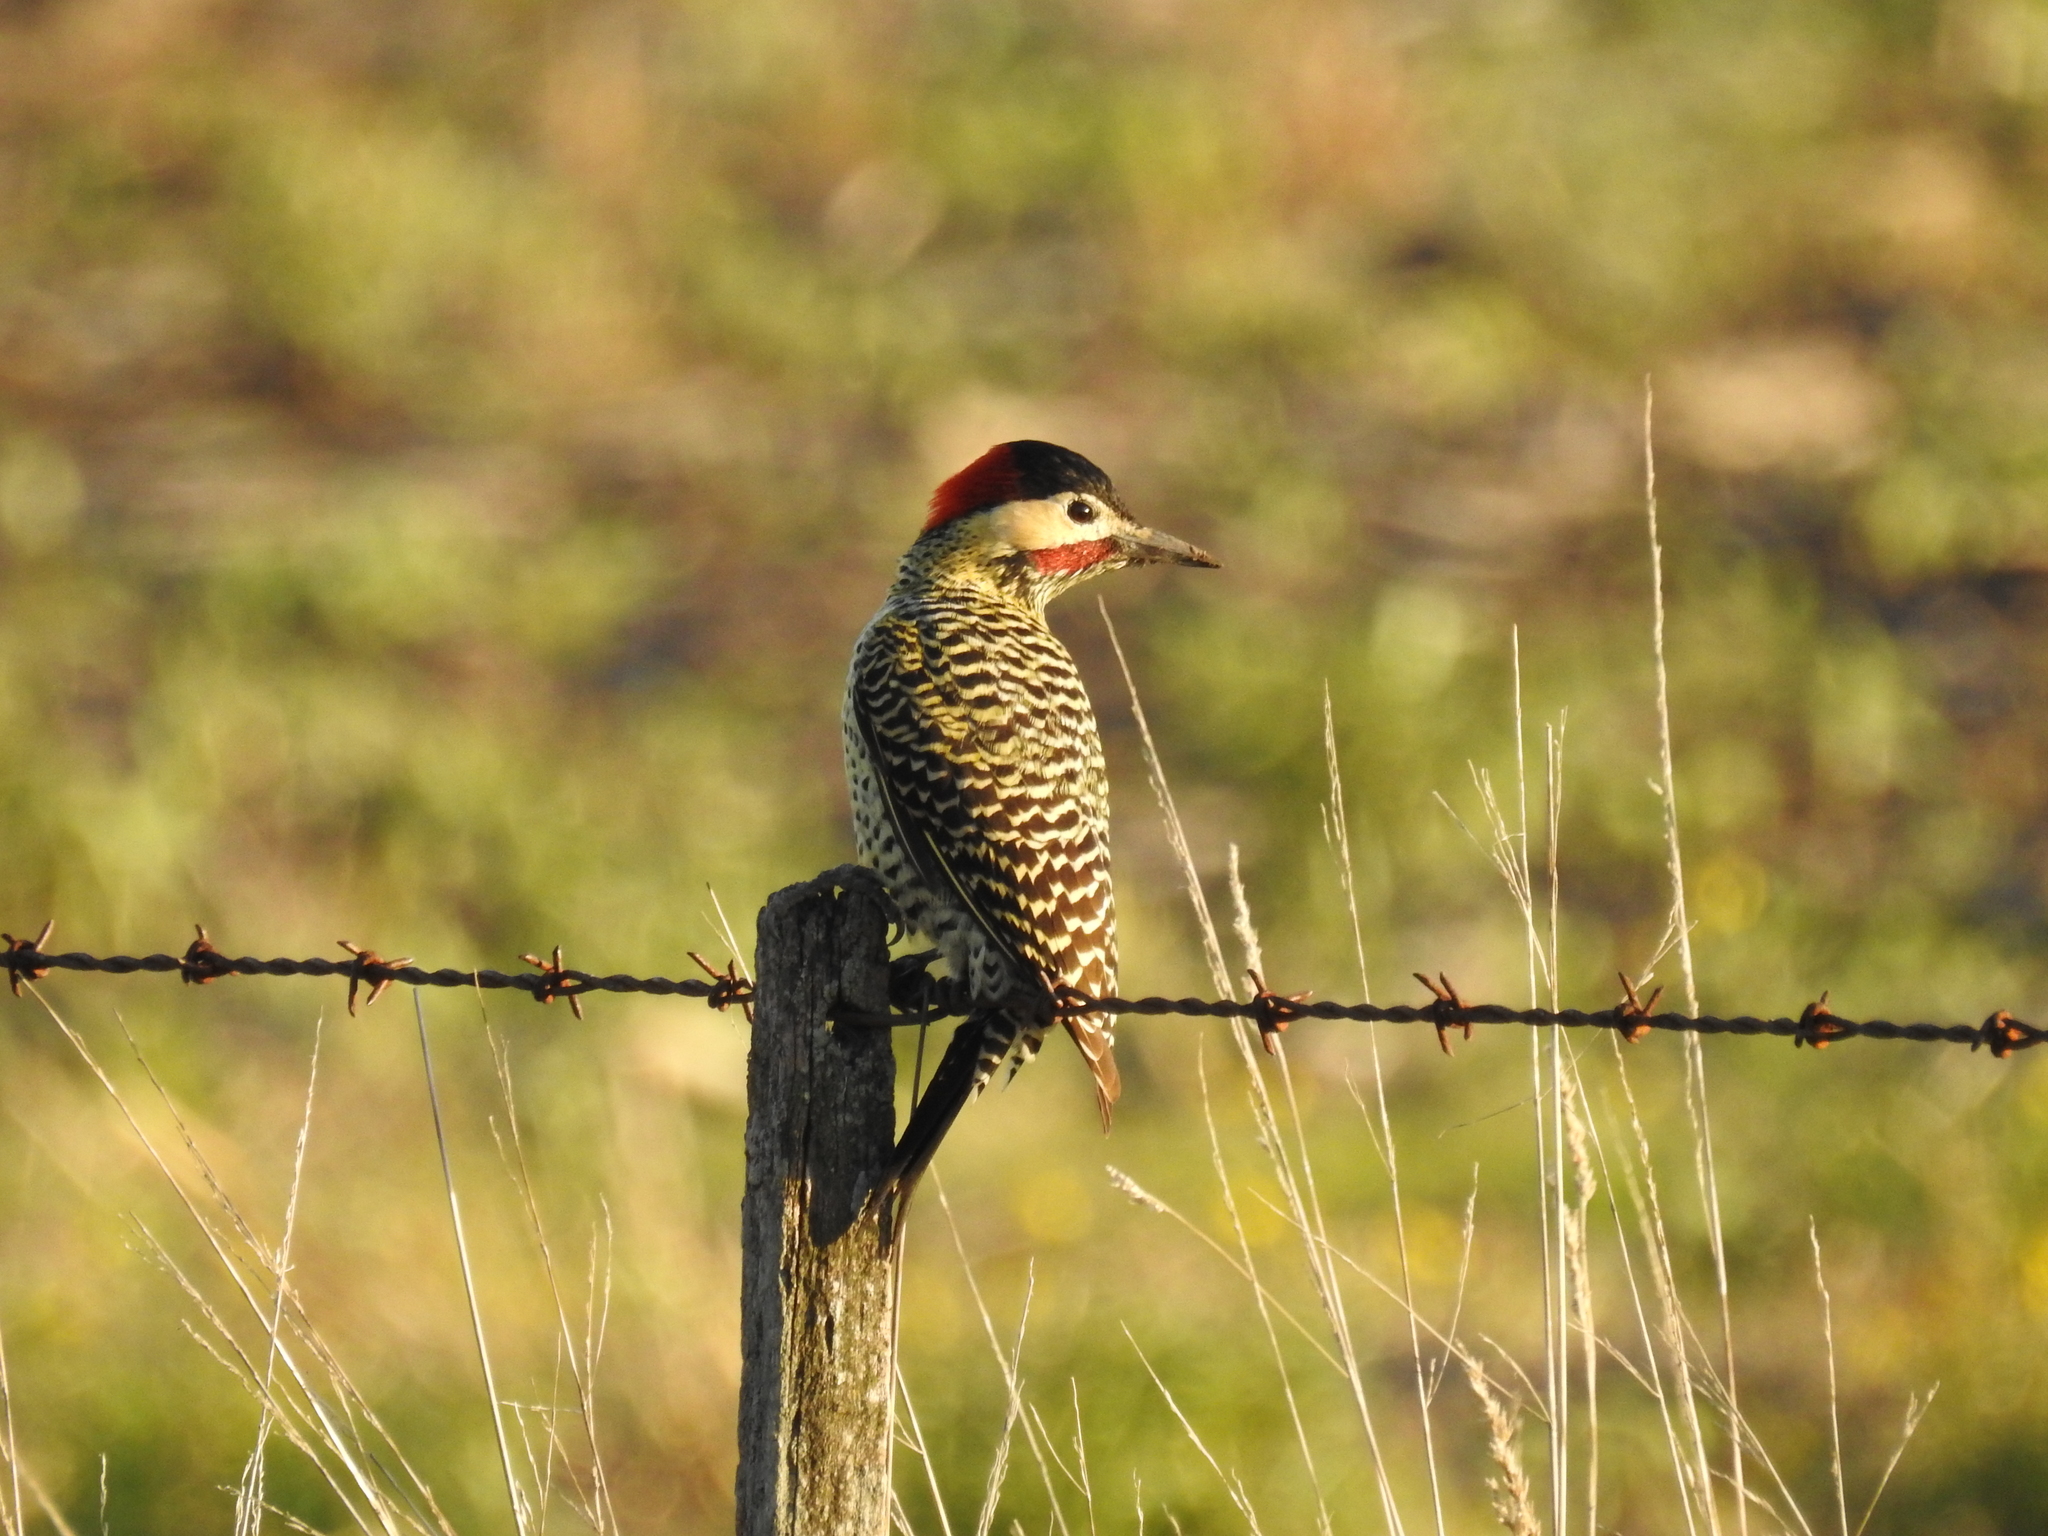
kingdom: Animalia
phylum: Chordata
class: Aves
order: Piciformes
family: Picidae
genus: Colaptes
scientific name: Colaptes melanochloros
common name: Green-barred woodpecker
